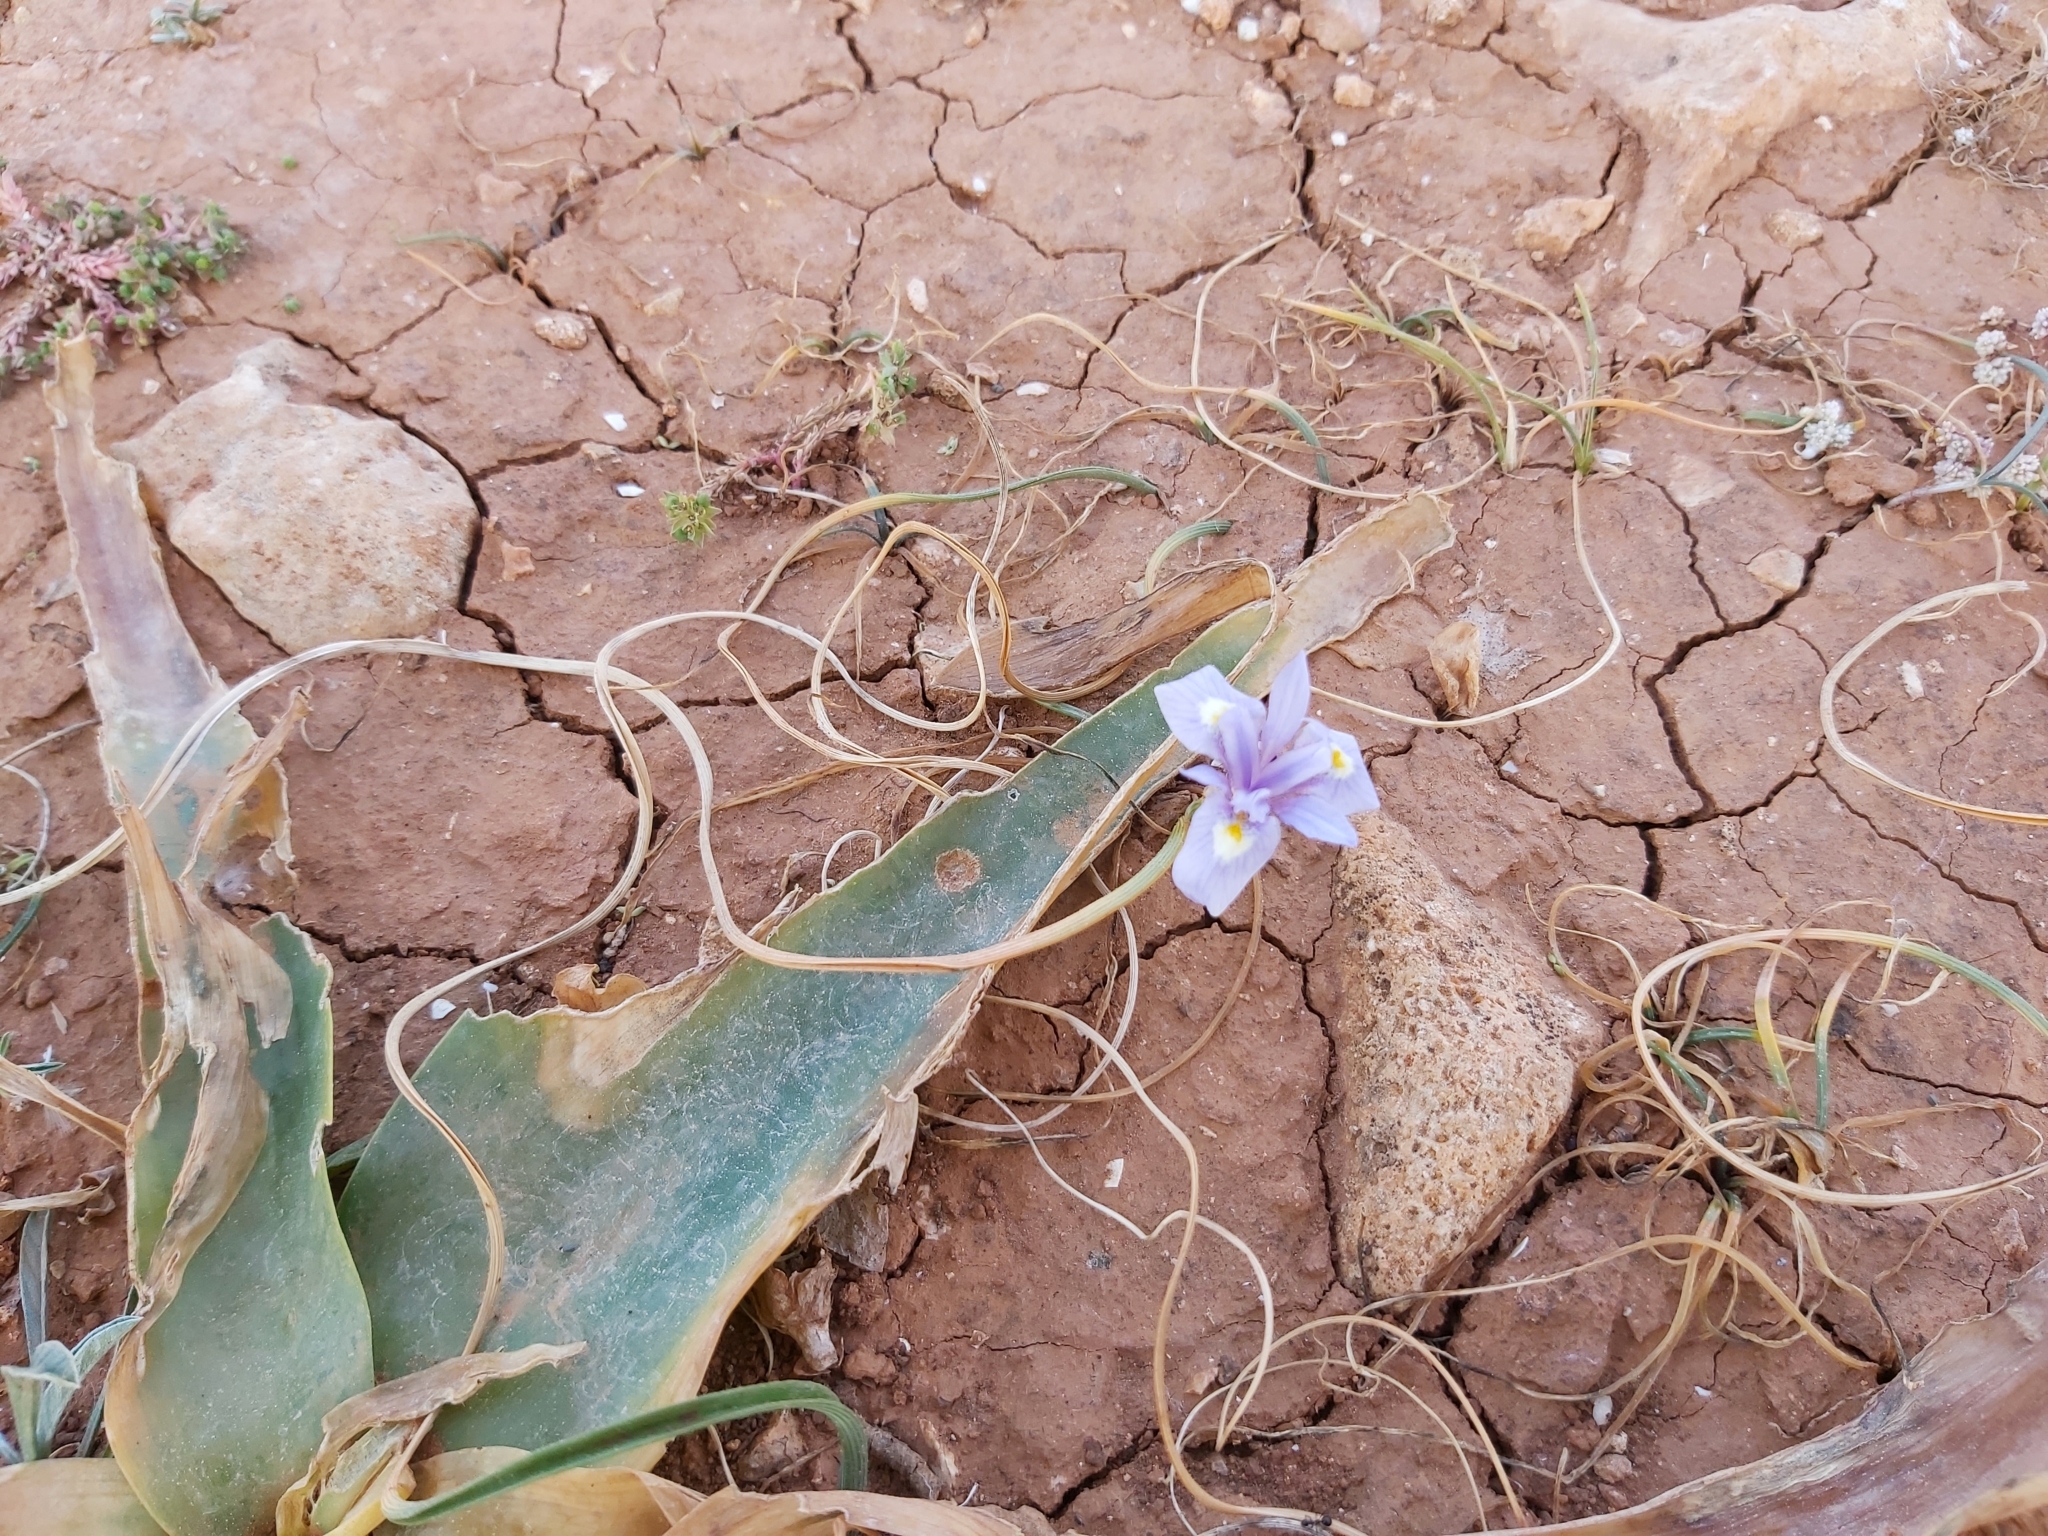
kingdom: Plantae
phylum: Tracheophyta
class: Liliopsida
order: Asparagales
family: Iridaceae
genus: Moraea
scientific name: Moraea mediterranea
